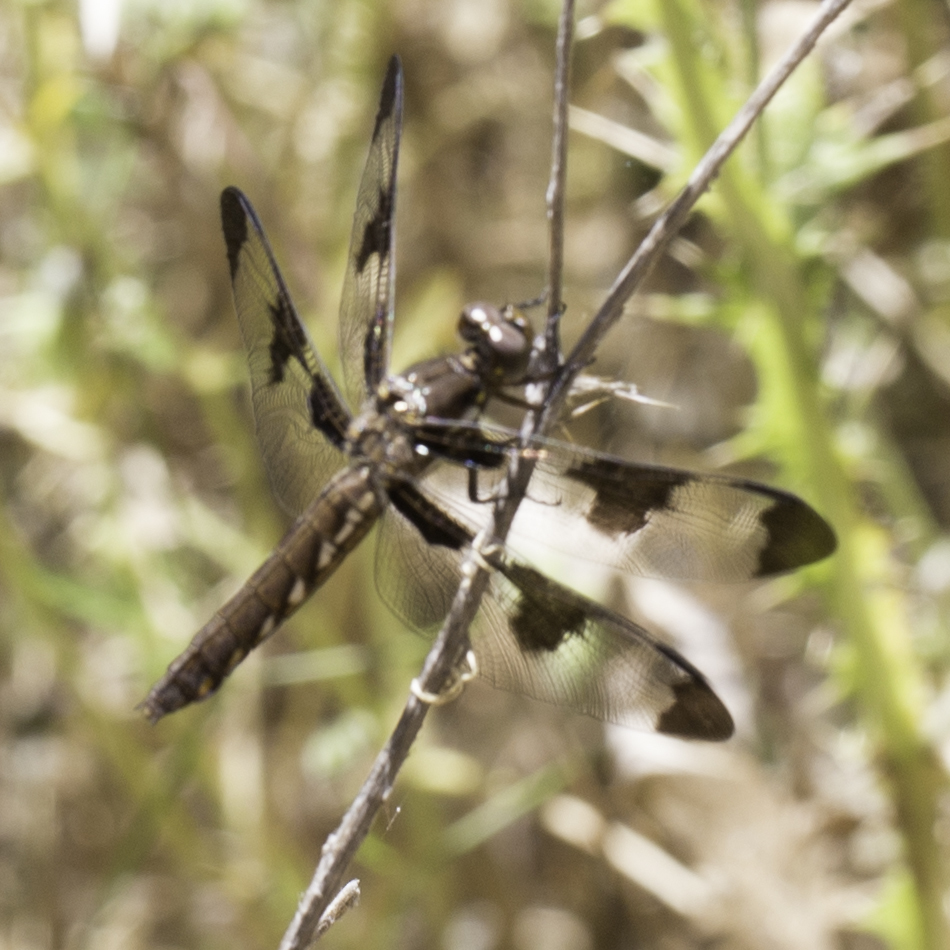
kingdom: Animalia
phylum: Arthropoda
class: Insecta
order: Odonata
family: Libellulidae
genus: Plathemis
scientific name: Plathemis lydia
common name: Common whitetail
